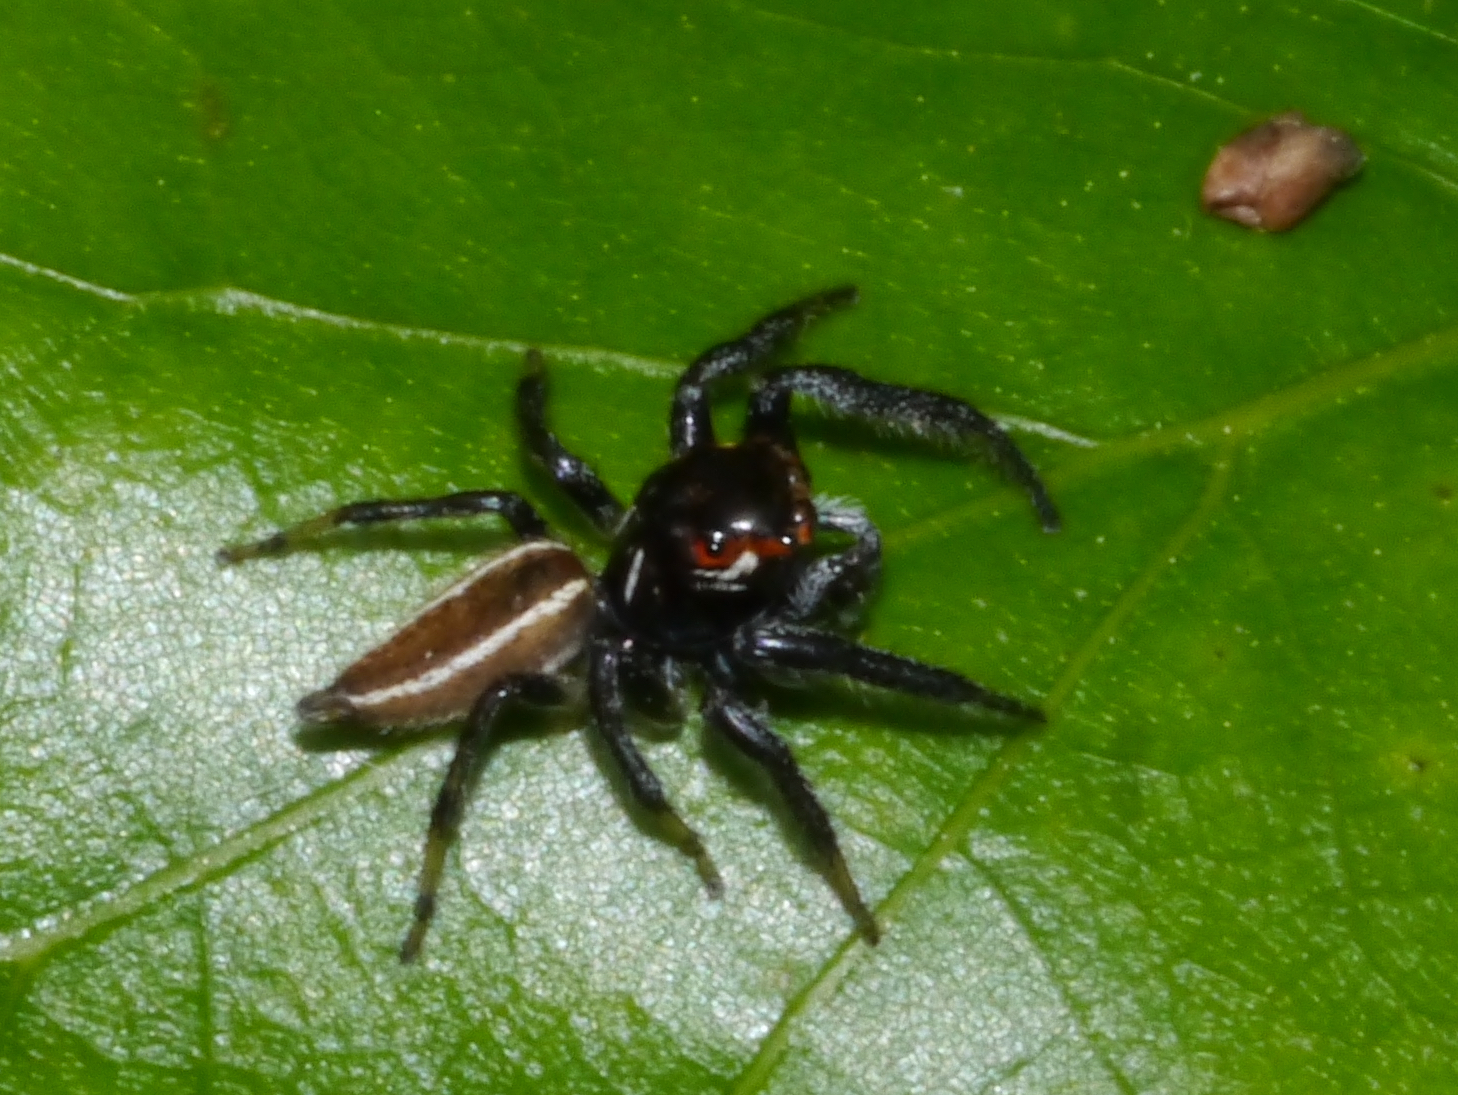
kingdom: Animalia
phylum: Arthropoda
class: Arachnida
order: Araneae
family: Salticidae
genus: Colonus
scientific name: Colonus sylvanus
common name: Jumping spiders
